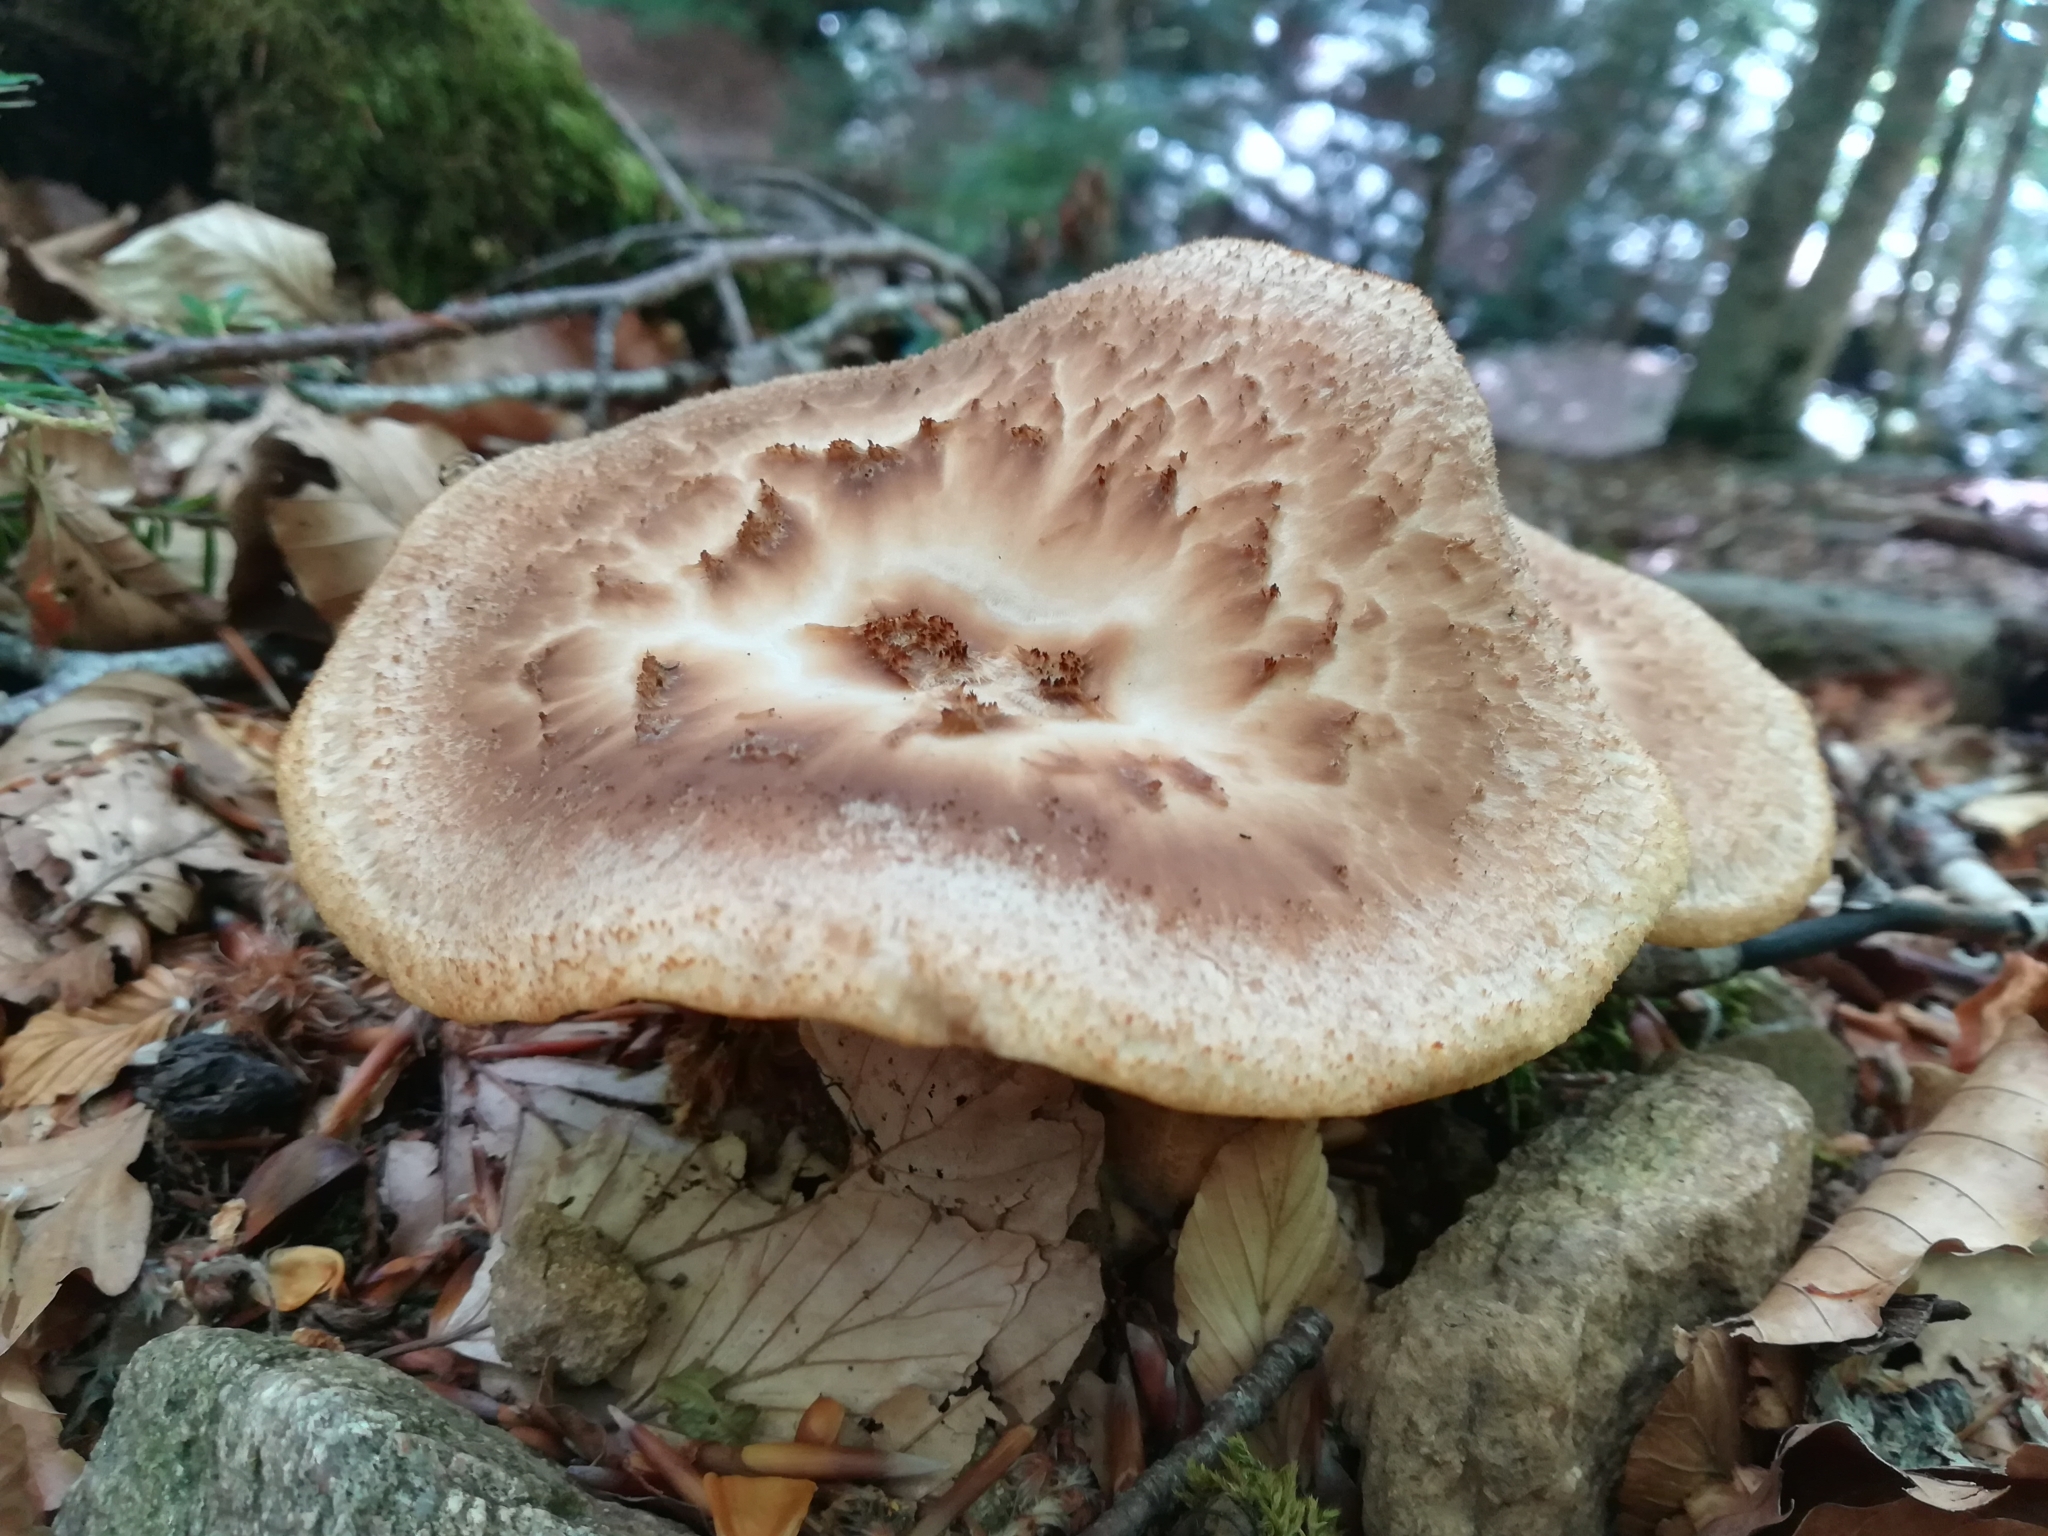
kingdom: Fungi
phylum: Basidiomycota
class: Agaricomycetes
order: Polyporales
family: Polyporaceae
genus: Cerioporus
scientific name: Cerioporus squamosus
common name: Dryad's saddle
